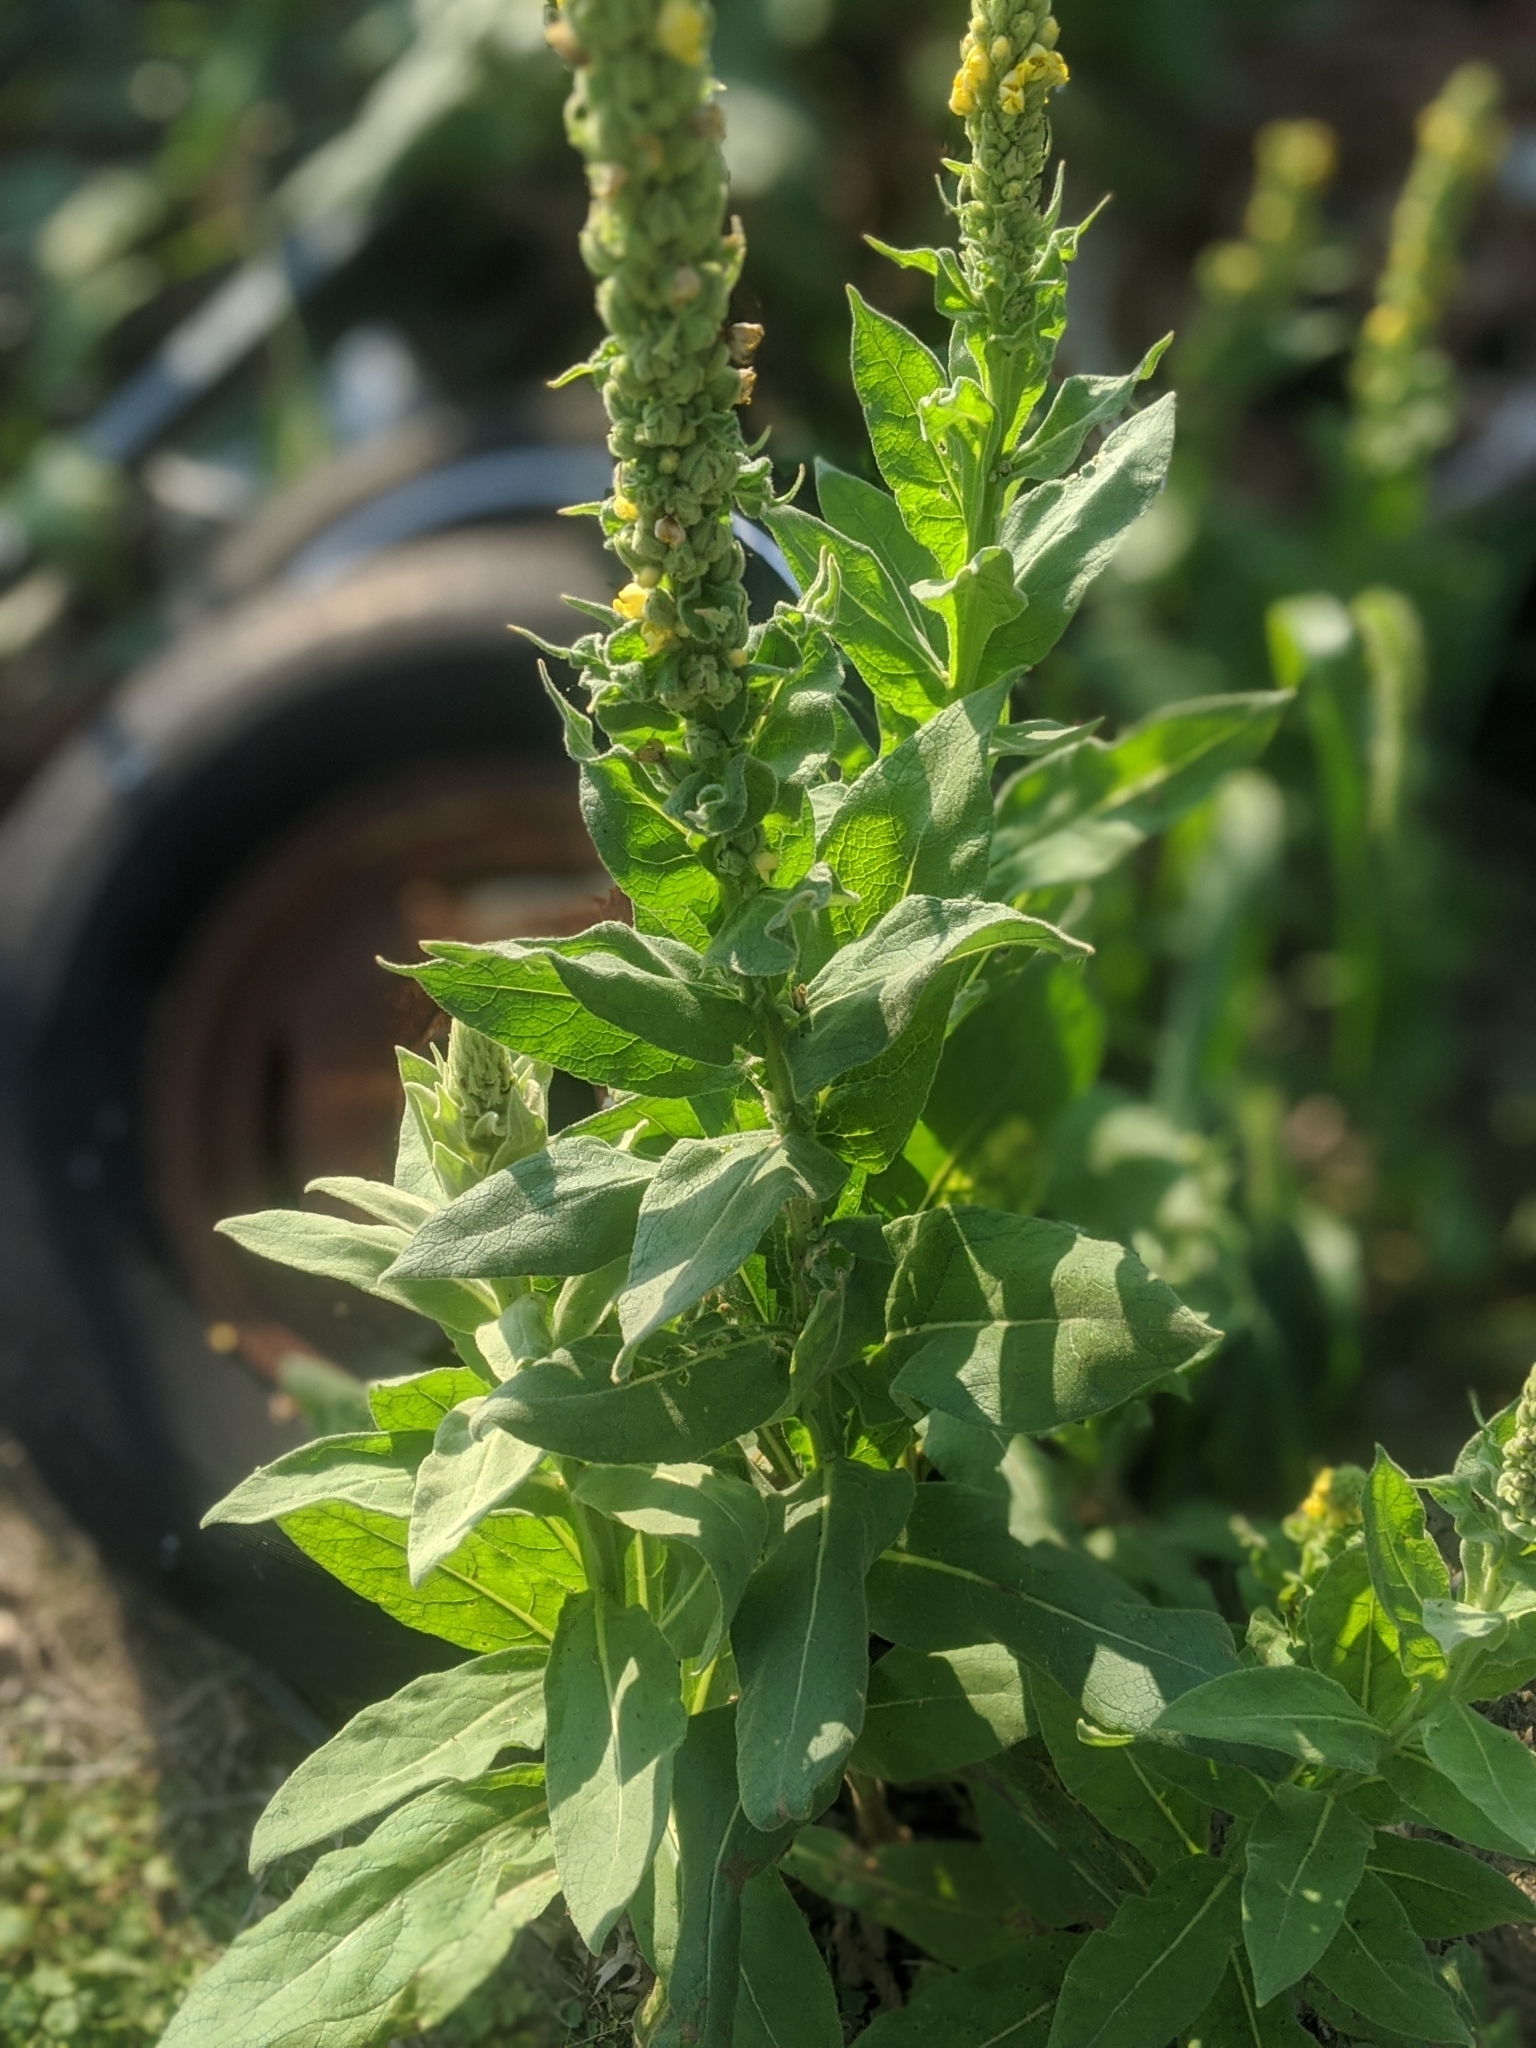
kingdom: Plantae
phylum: Tracheophyta
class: Magnoliopsida
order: Lamiales
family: Scrophulariaceae
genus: Verbascum
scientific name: Verbascum thapsus
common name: Common mullein
